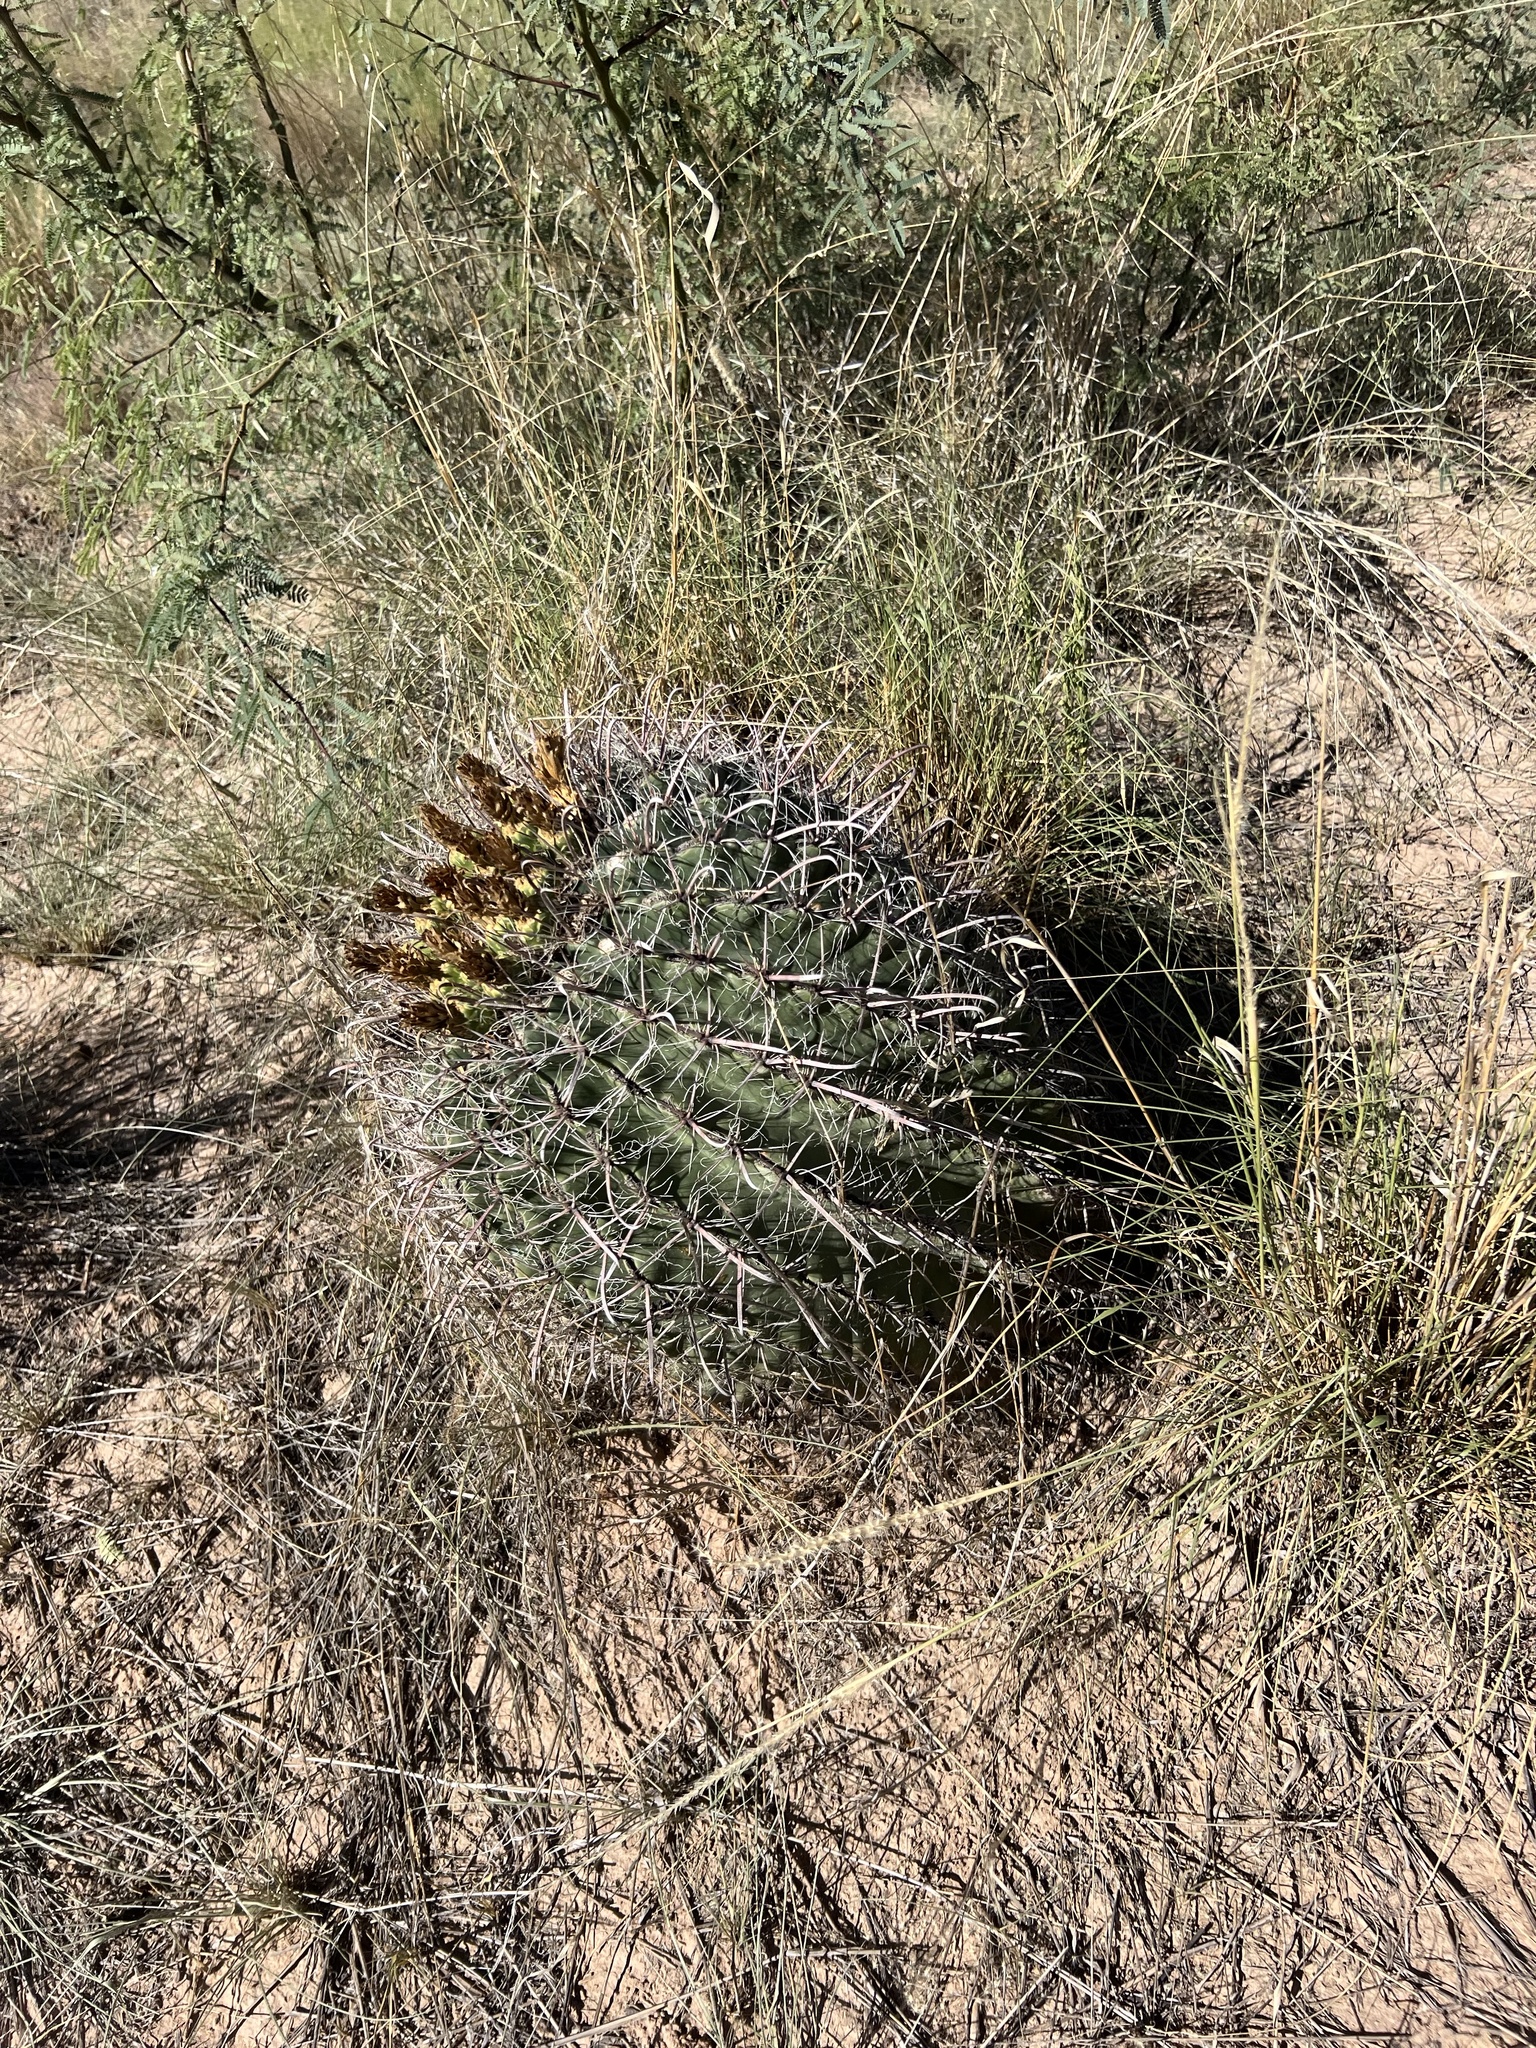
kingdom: Plantae
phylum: Tracheophyta
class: Magnoliopsida
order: Caryophyllales
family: Cactaceae
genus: Ferocactus
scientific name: Ferocactus wislizeni
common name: Candy barrel cactus
